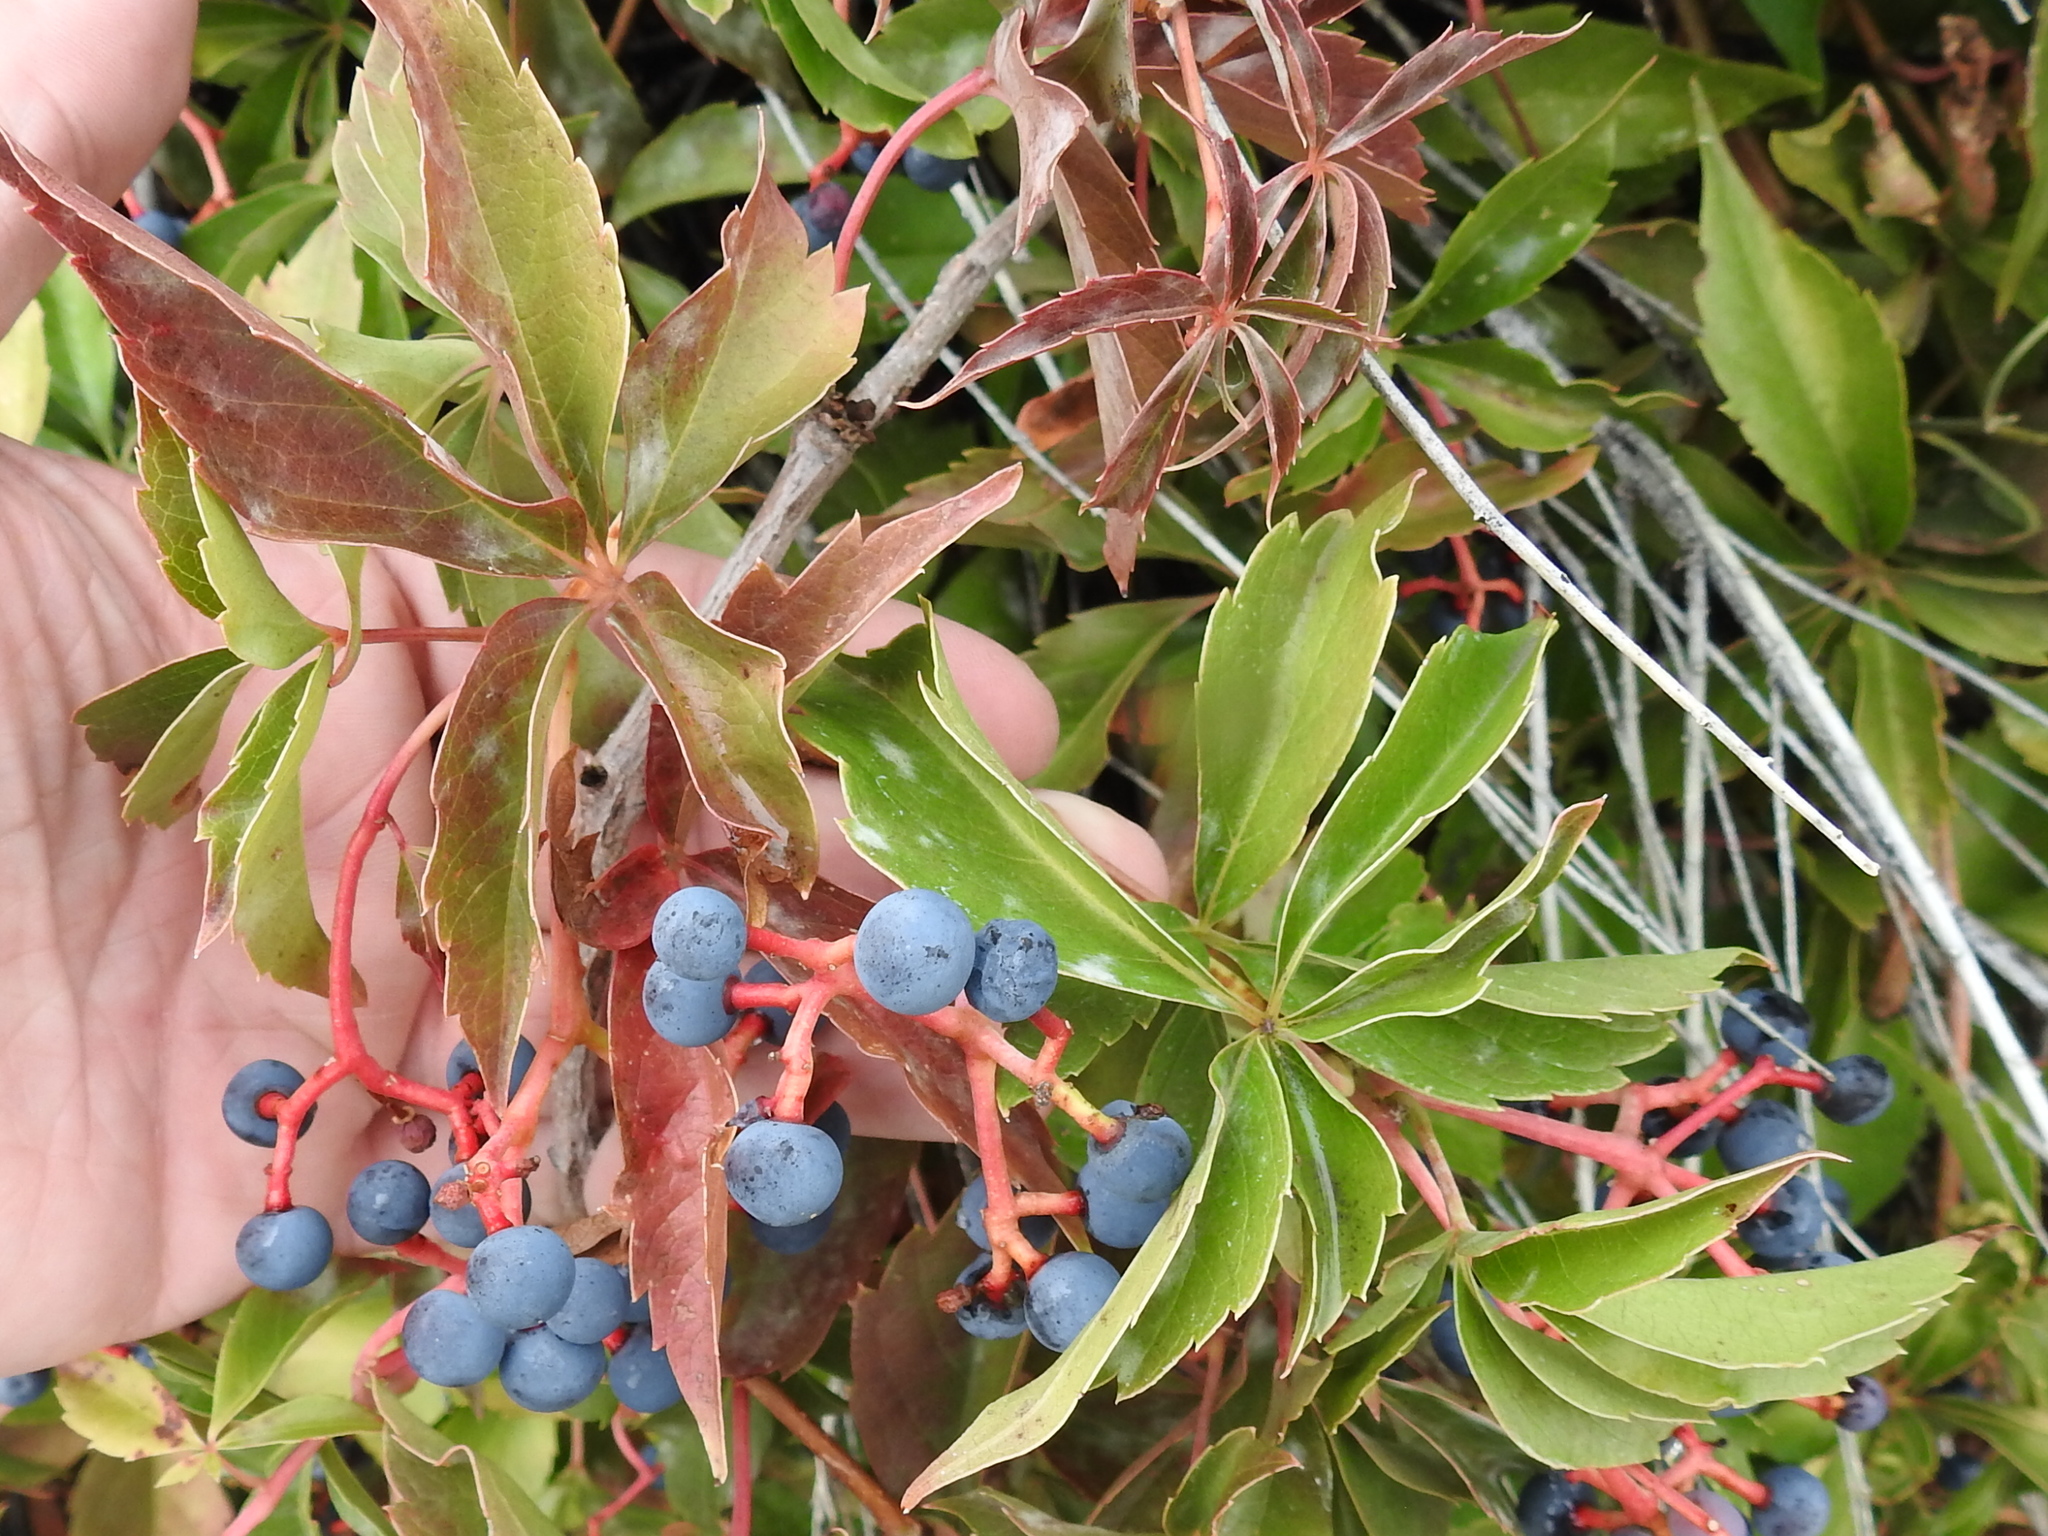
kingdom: Plantae
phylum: Tracheophyta
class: Magnoliopsida
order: Vitales
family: Vitaceae
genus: Parthenocissus
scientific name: Parthenocissus inserta
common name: False virginia-creeper
